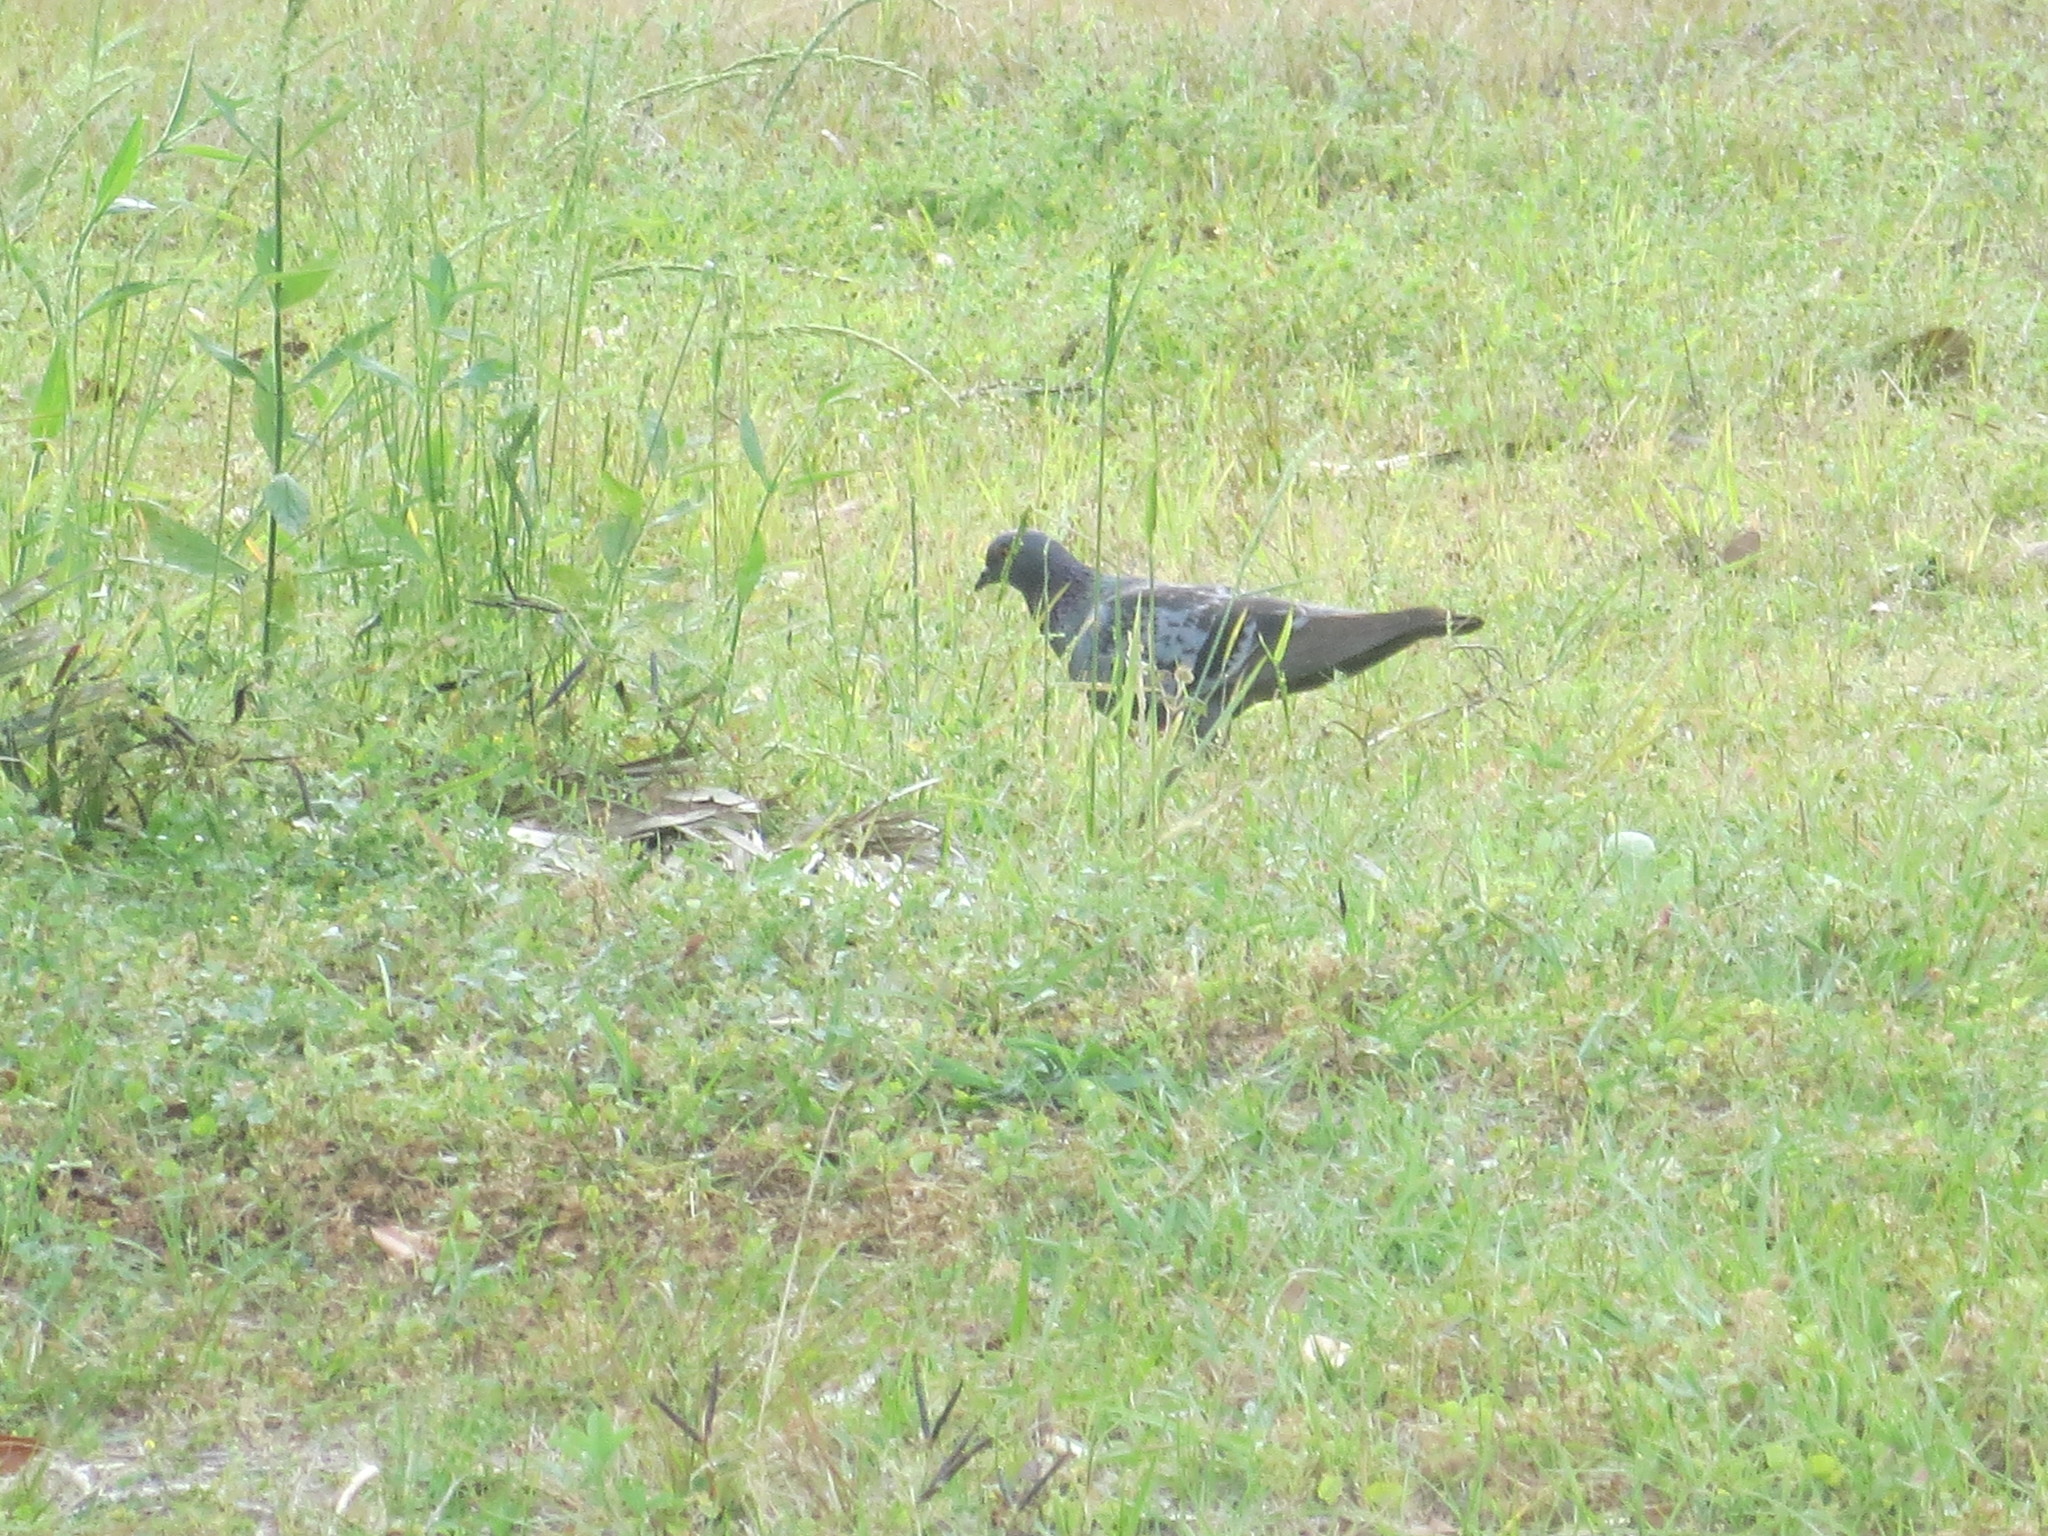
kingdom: Animalia
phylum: Chordata
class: Aves
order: Columbiformes
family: Columbidae
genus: Columba
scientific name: Columba livia
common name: Rock pigeon
